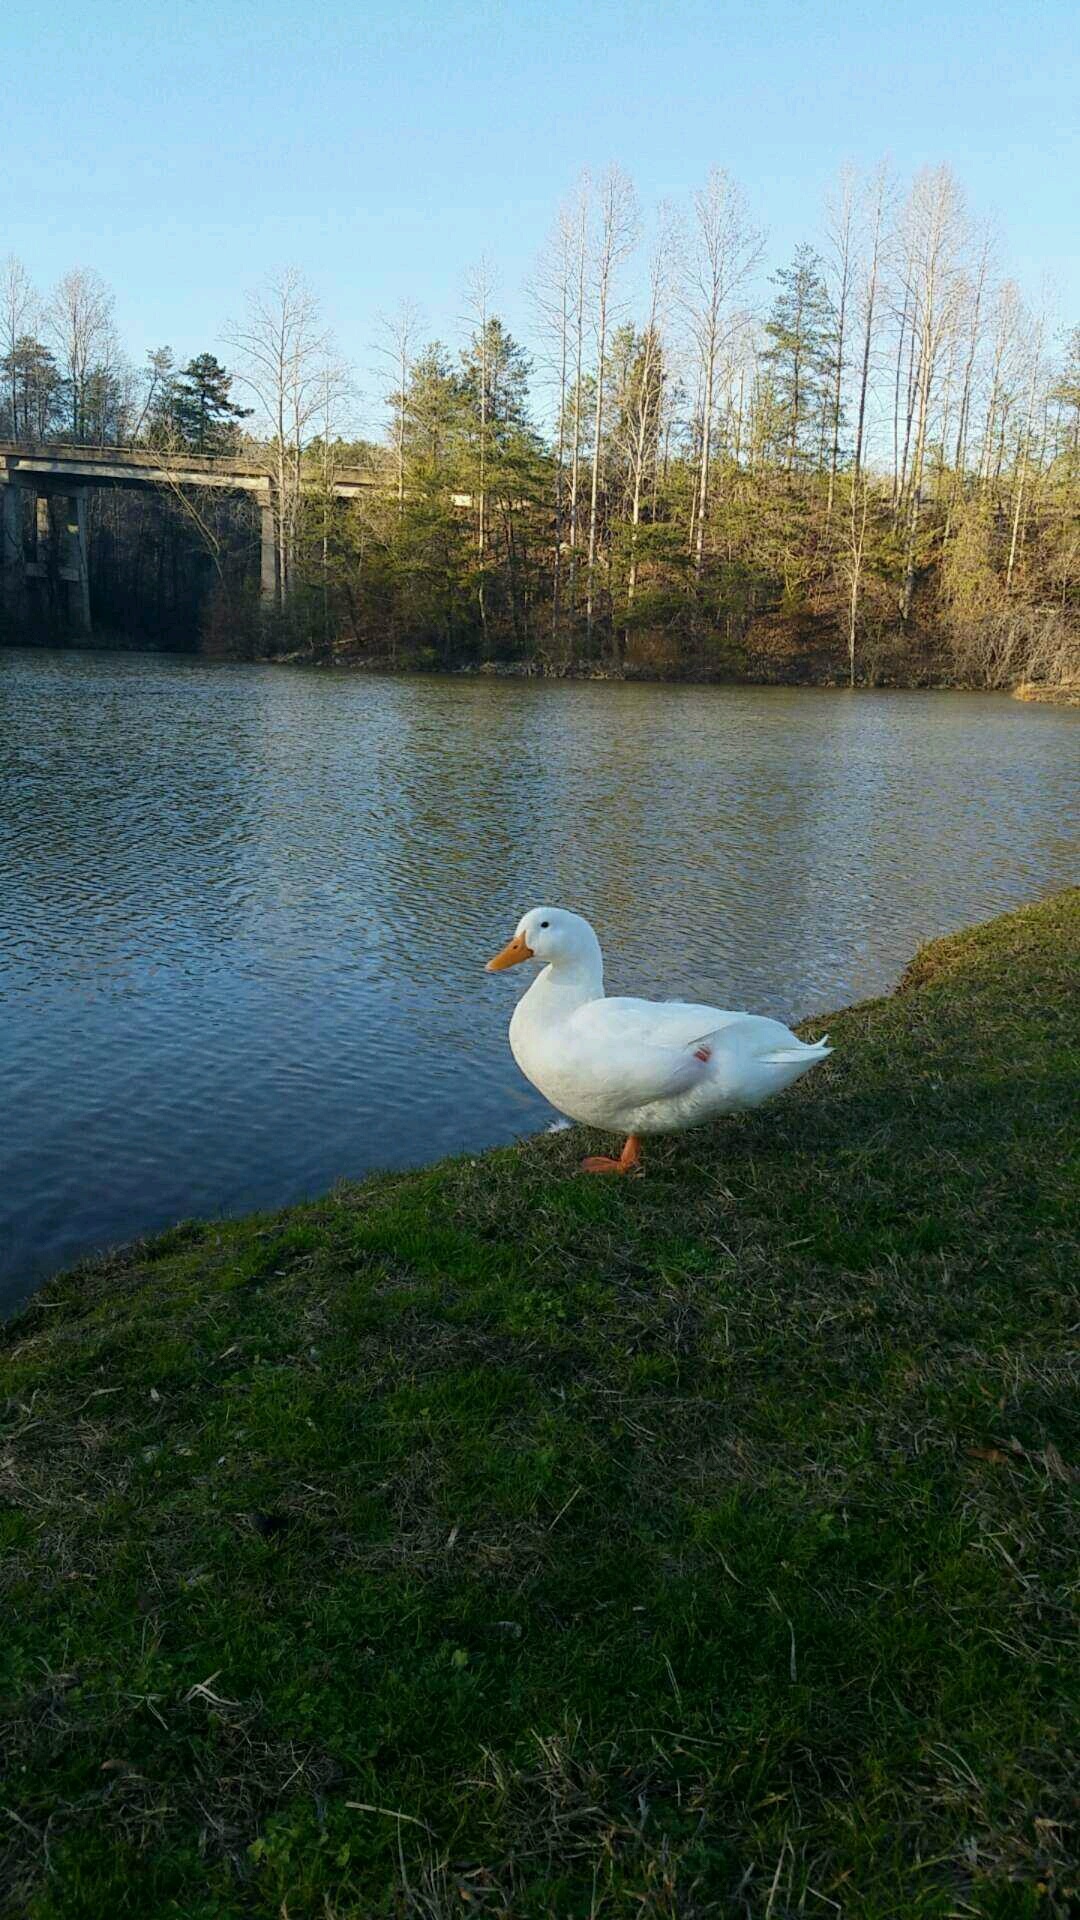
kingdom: Animalia
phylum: Chordata
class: Aves
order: Anseriformes
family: Anatidae
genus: Anas
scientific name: Anas platyrhynchos
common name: Mallard
